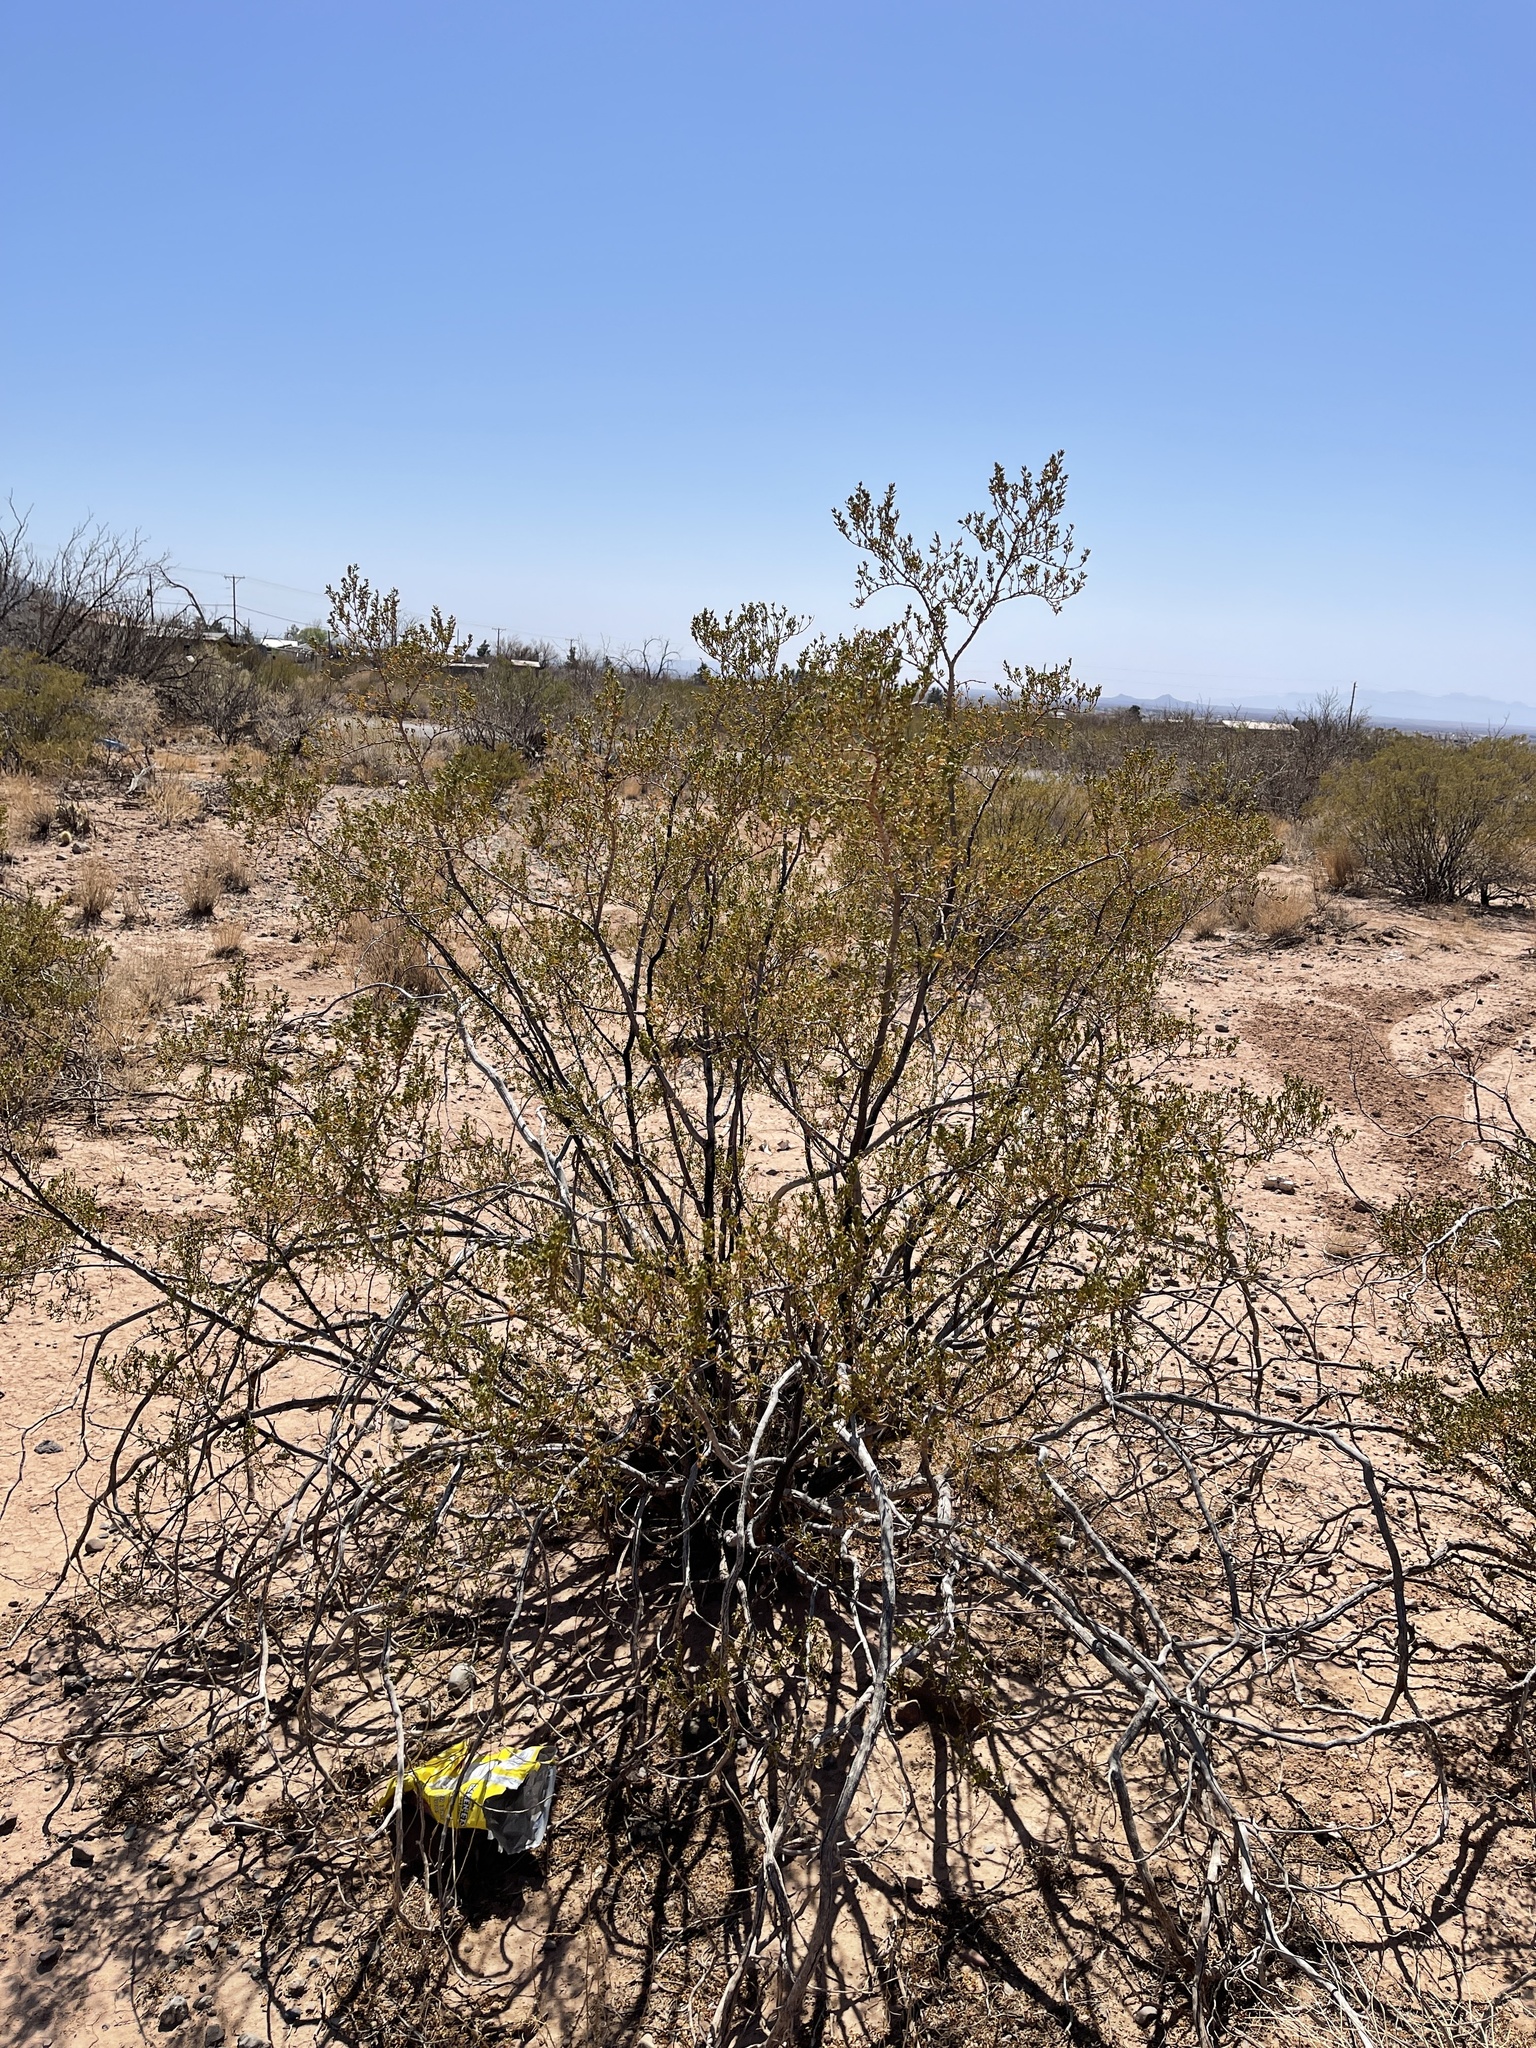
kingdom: Plantae
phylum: Tracheophyta
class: Magnoliopsida
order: Zygophyllales
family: Zygophyllaceae
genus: Larrea
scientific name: Larrea tridentata
